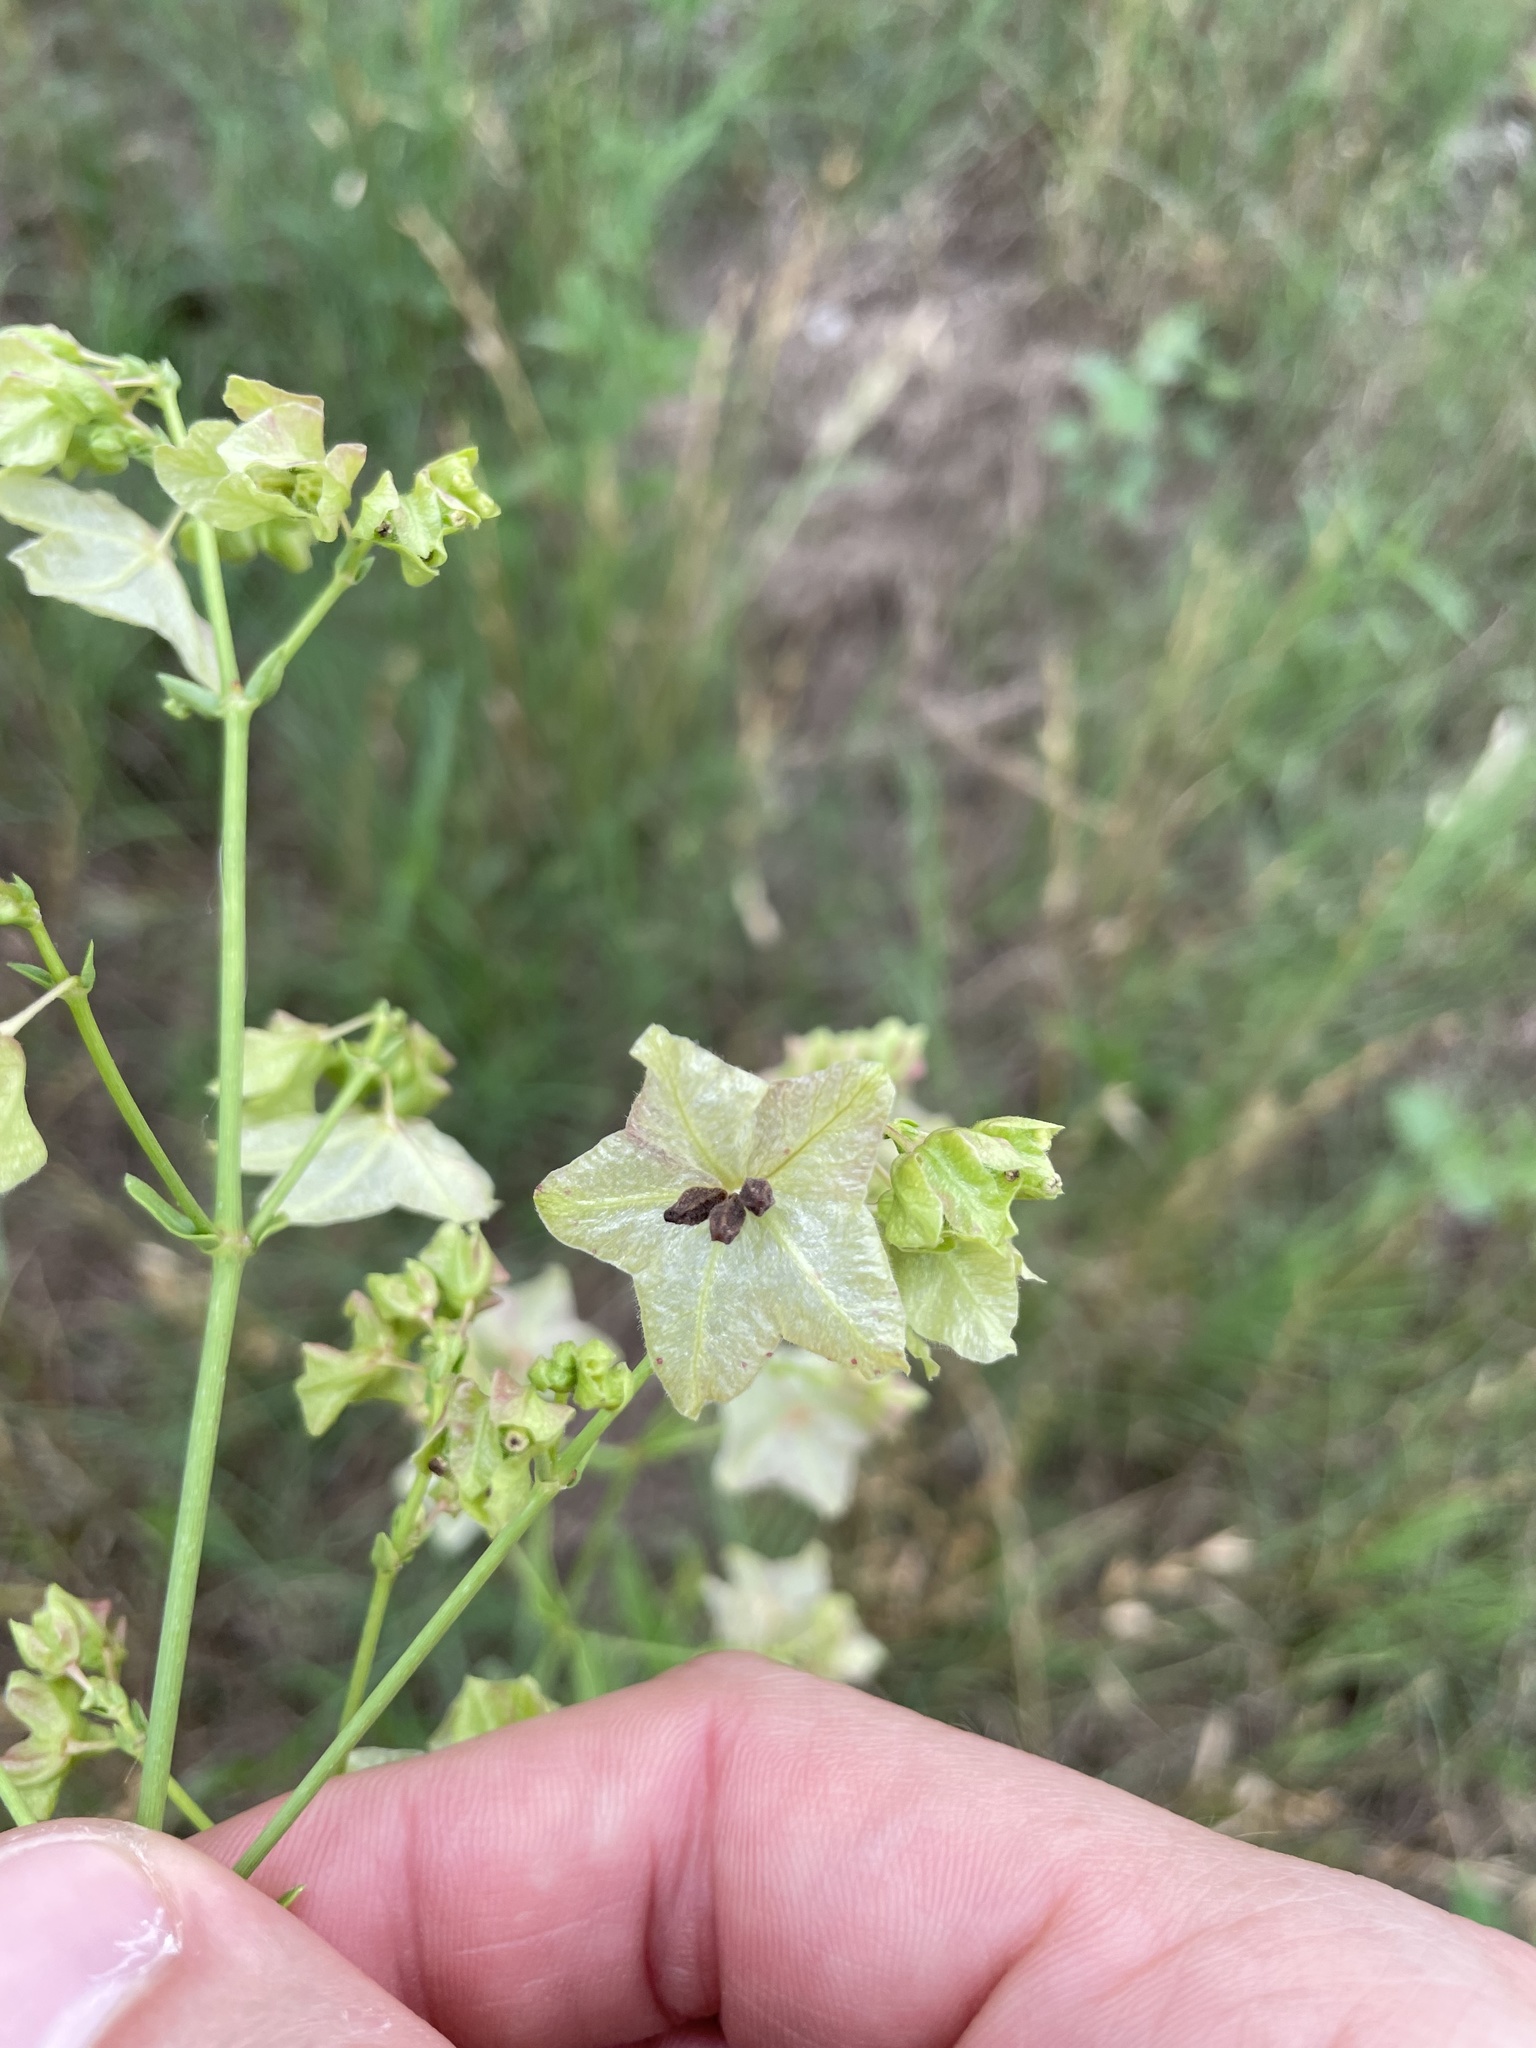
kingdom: Plantae
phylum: Tracheophyta
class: Magnoliopsida
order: Caryophyllales
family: Nyctaginaceae
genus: Mirabilis
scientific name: Mirabilis albida
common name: Hairy four-o'clock
